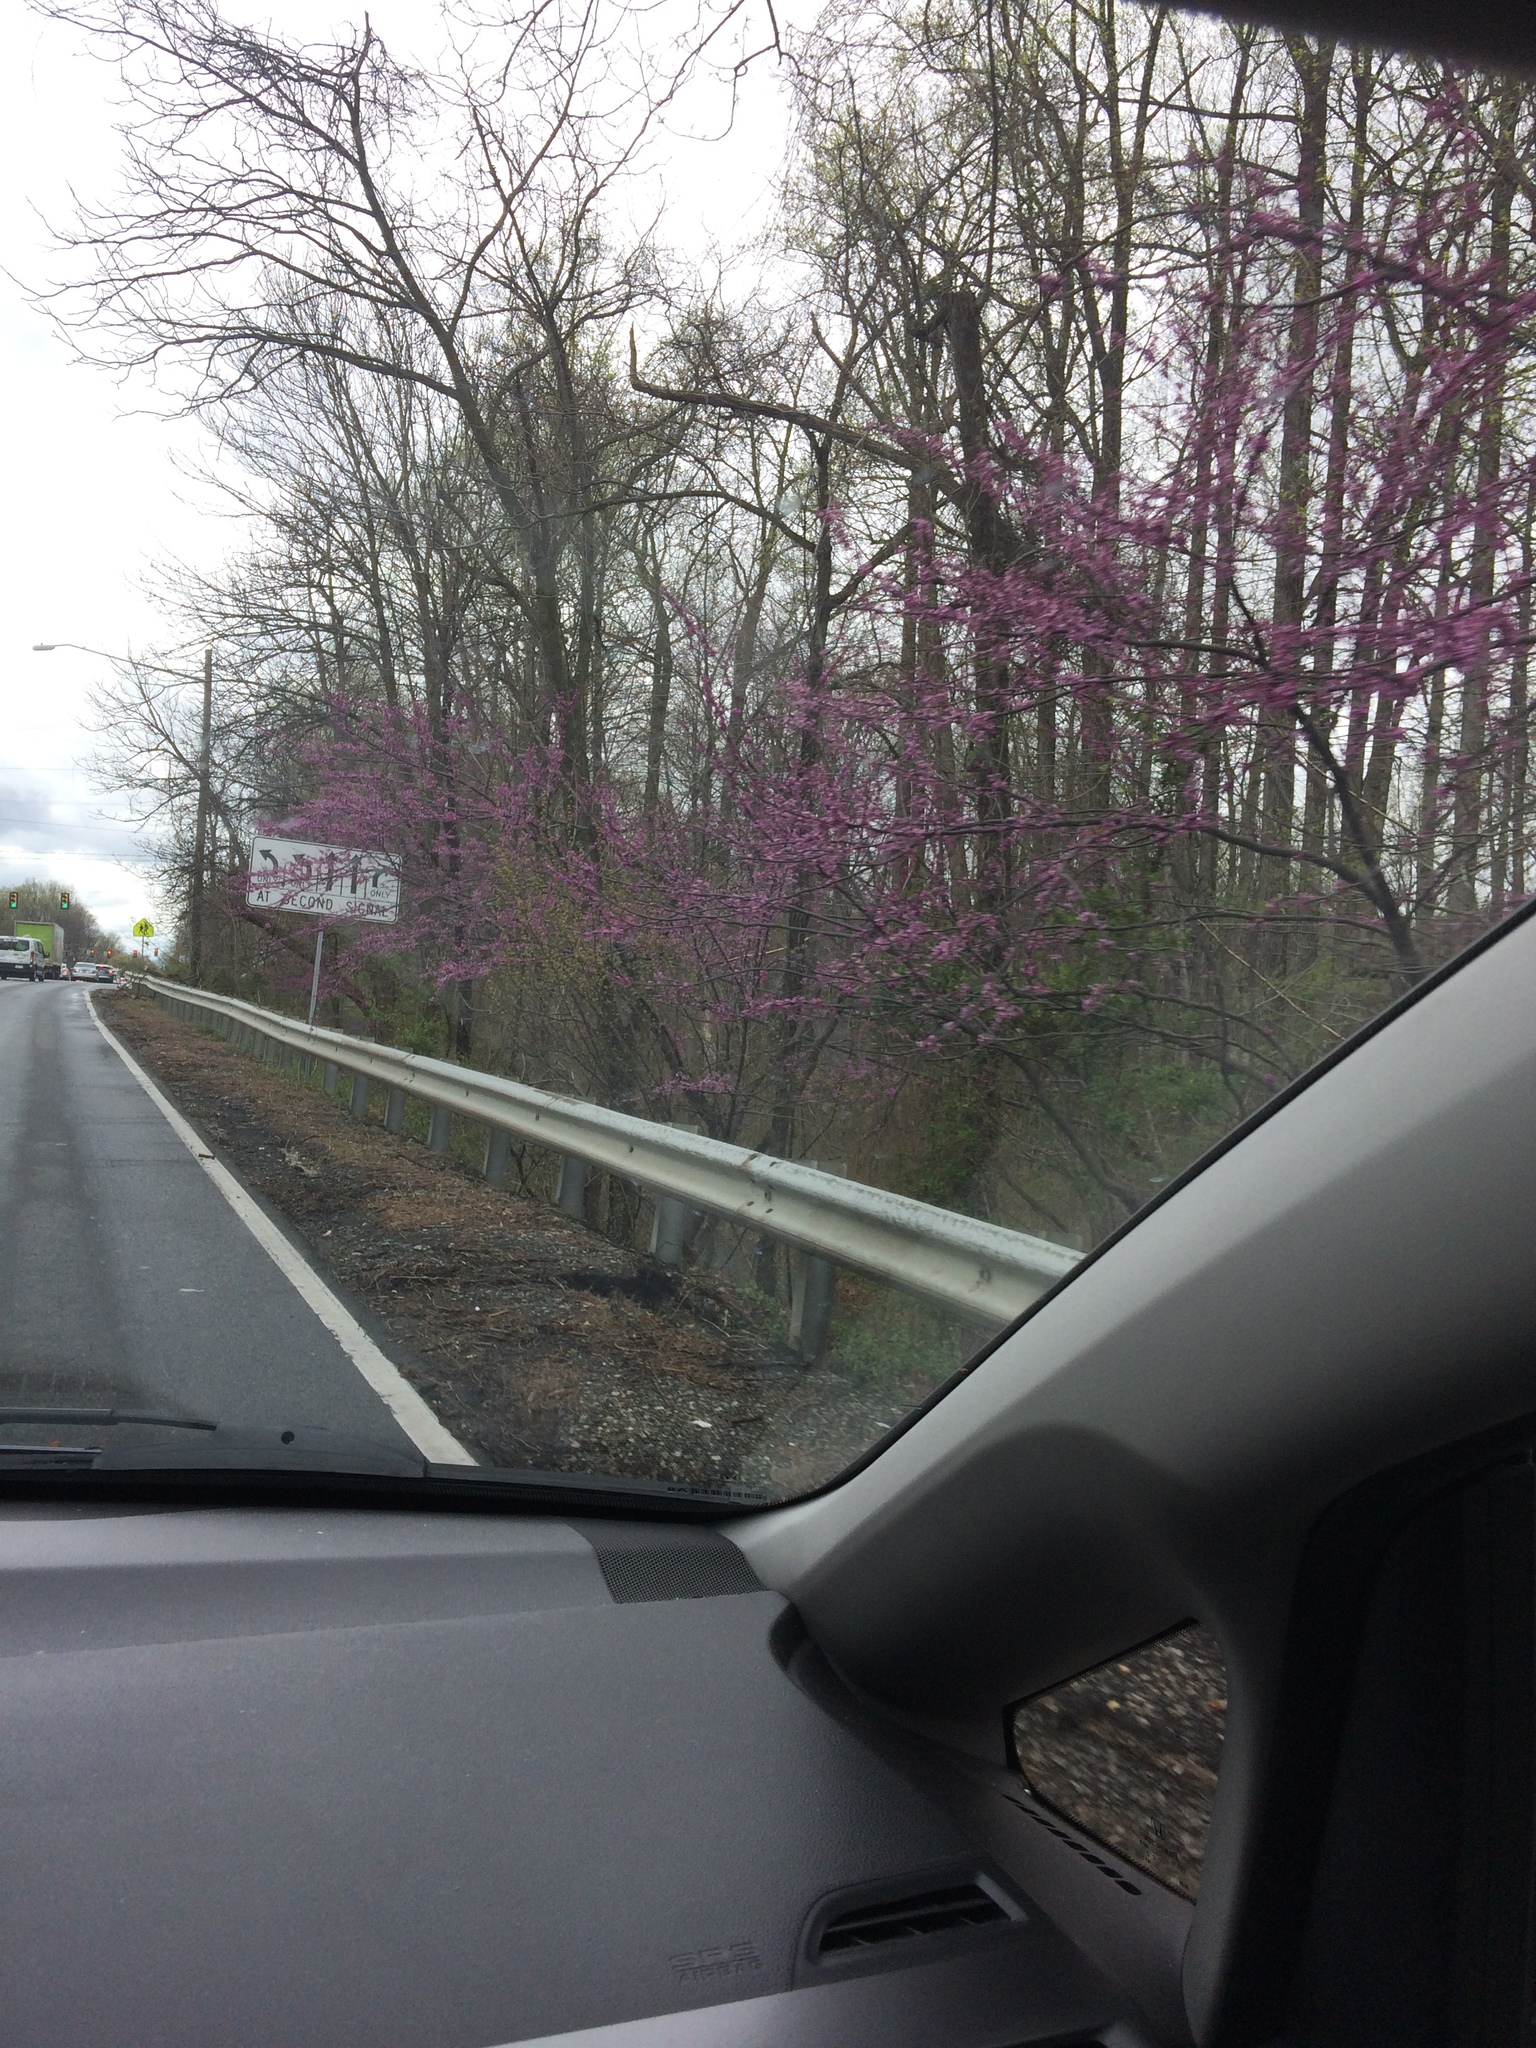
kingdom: Plantae
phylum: Tracheophyta
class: Magnoliopsida
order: Fabales
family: Fabaceae
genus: Cercis
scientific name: Cercis canadensis
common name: Eastern redbud
